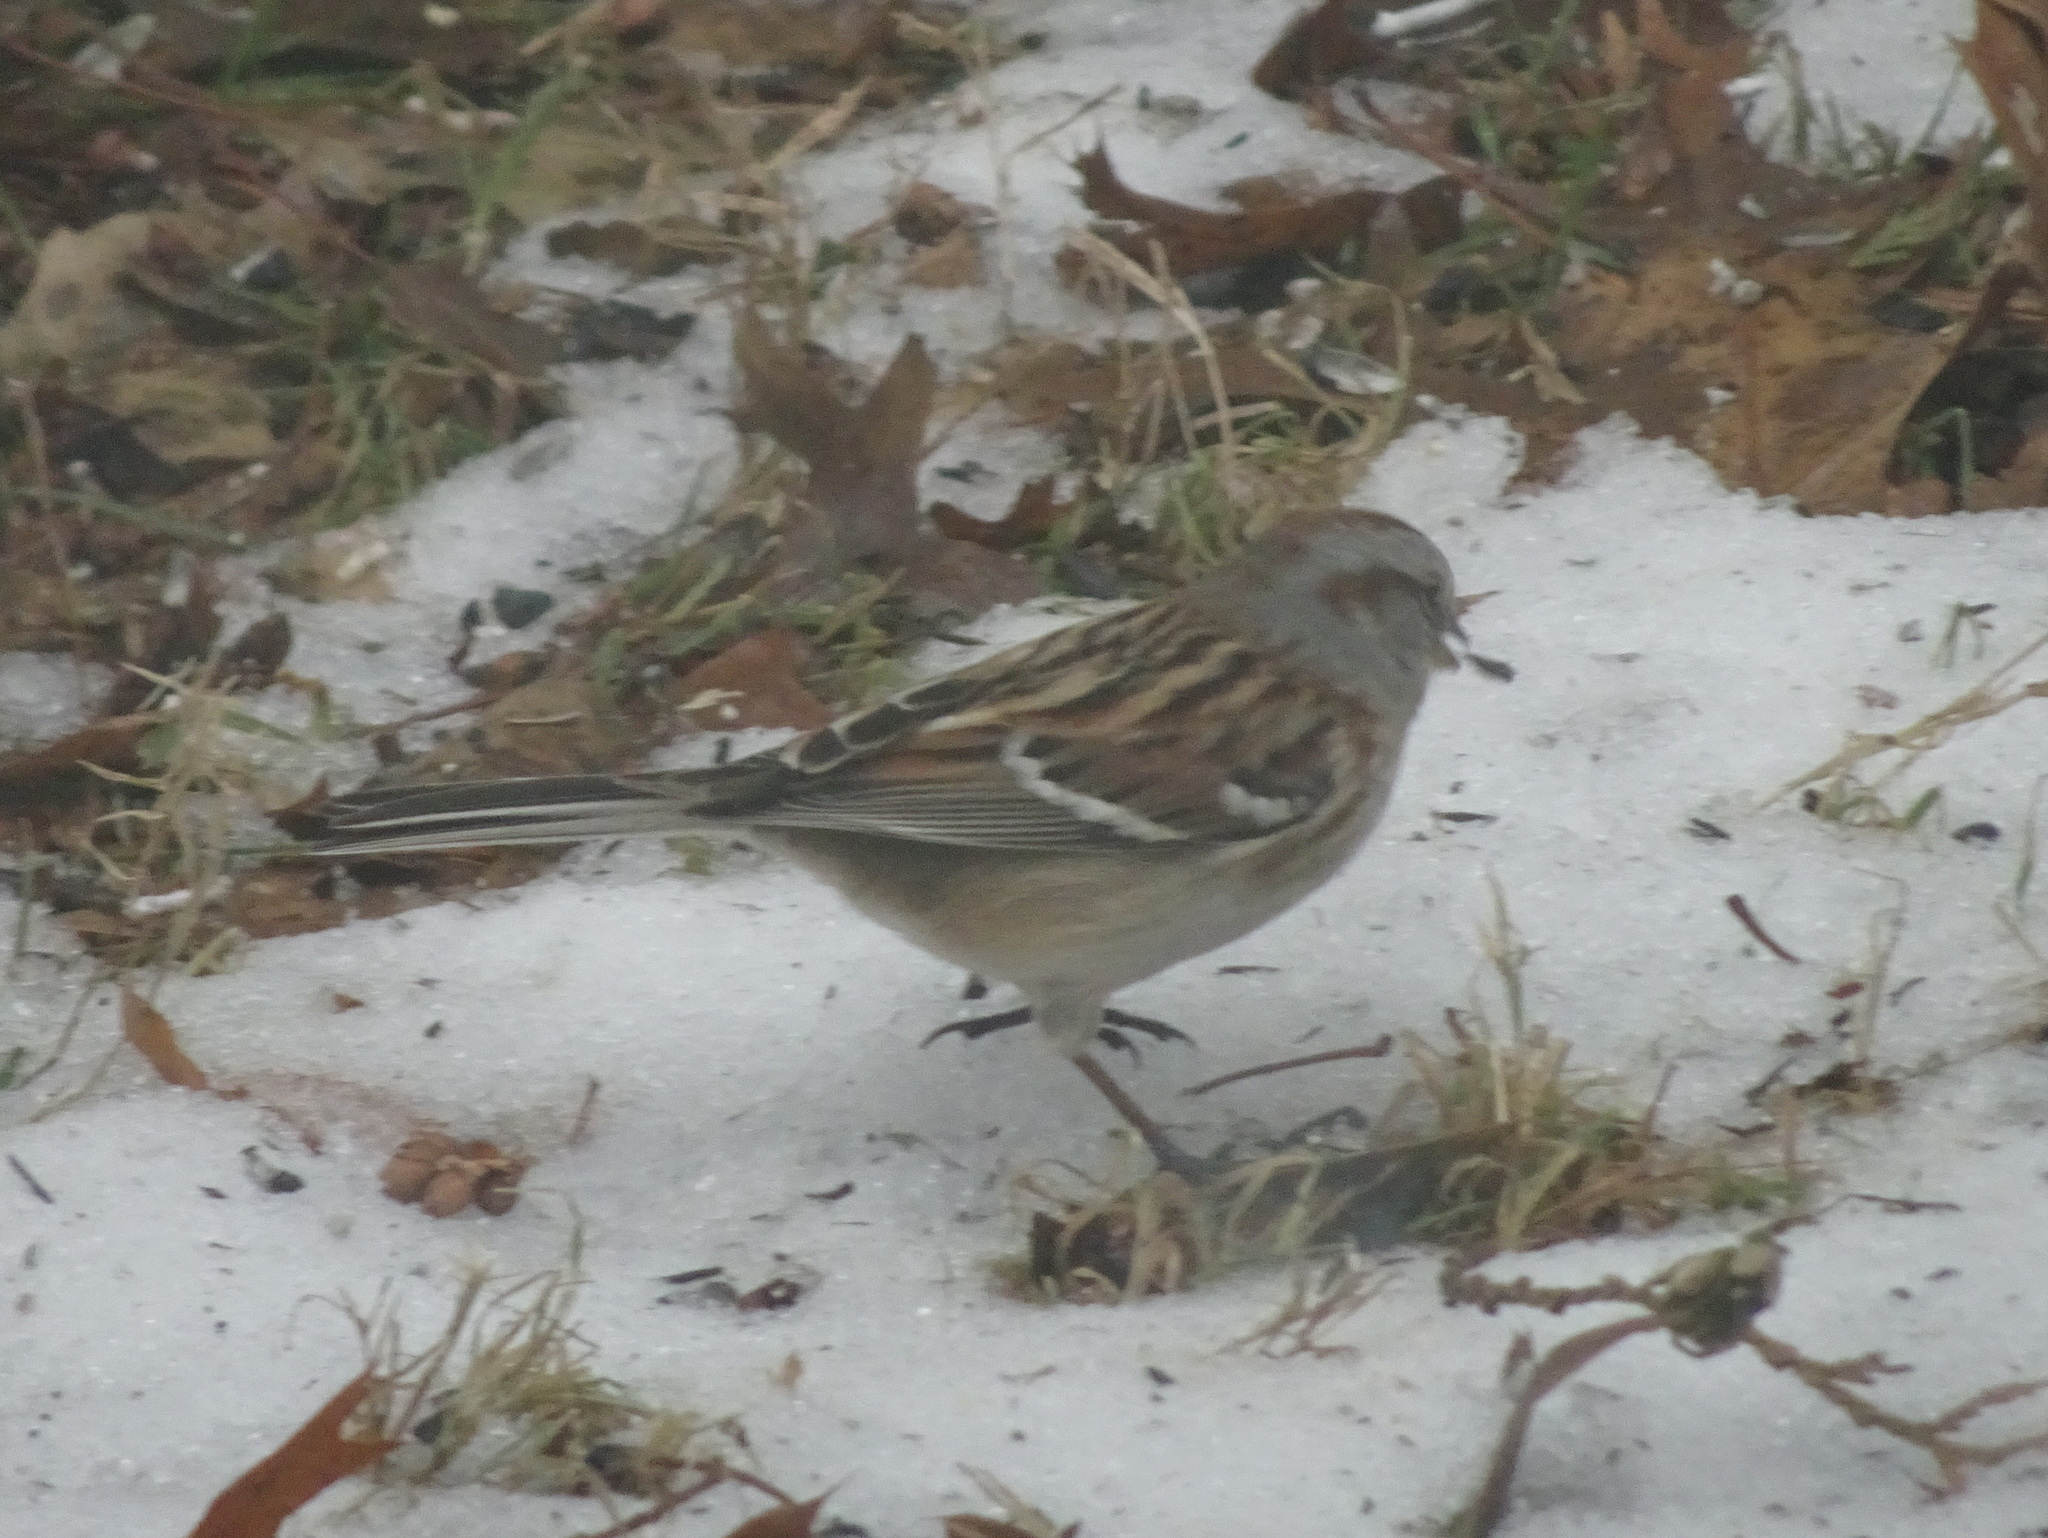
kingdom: Animalia
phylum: Chordata
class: Aves
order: Passeriformes
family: Passerellidae
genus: Spizelloides
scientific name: Spizelloides arborea
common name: American tree sparrow
